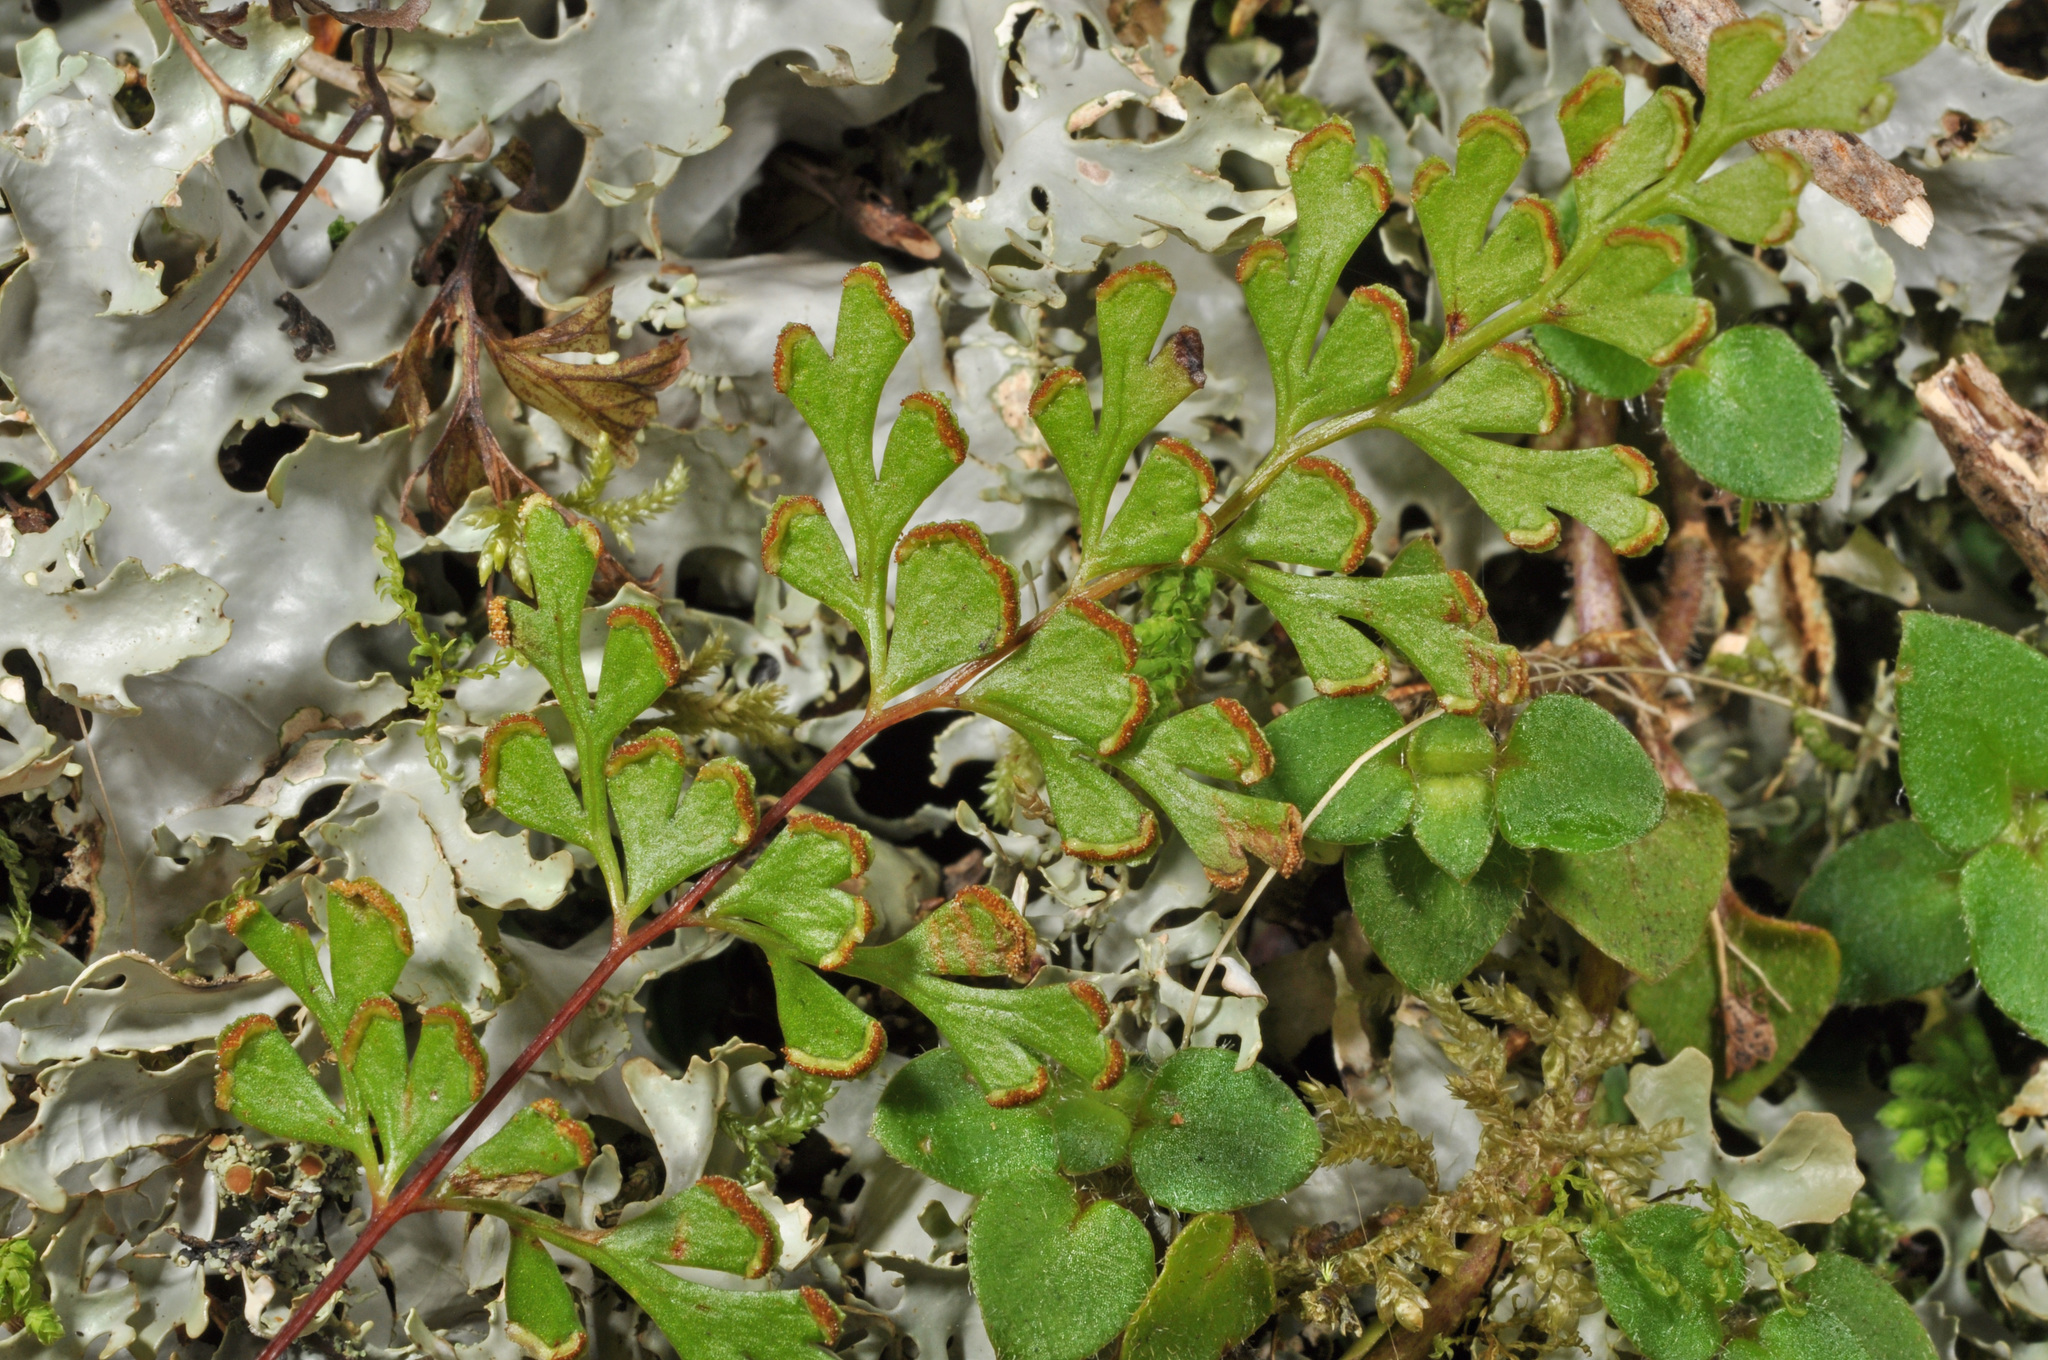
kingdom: Plantae
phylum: Tracheophyta
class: Polypodiopsida
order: Polypodiales
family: Lindsaeaceae
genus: Lindsaea
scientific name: Lindsaea trichomanoides
